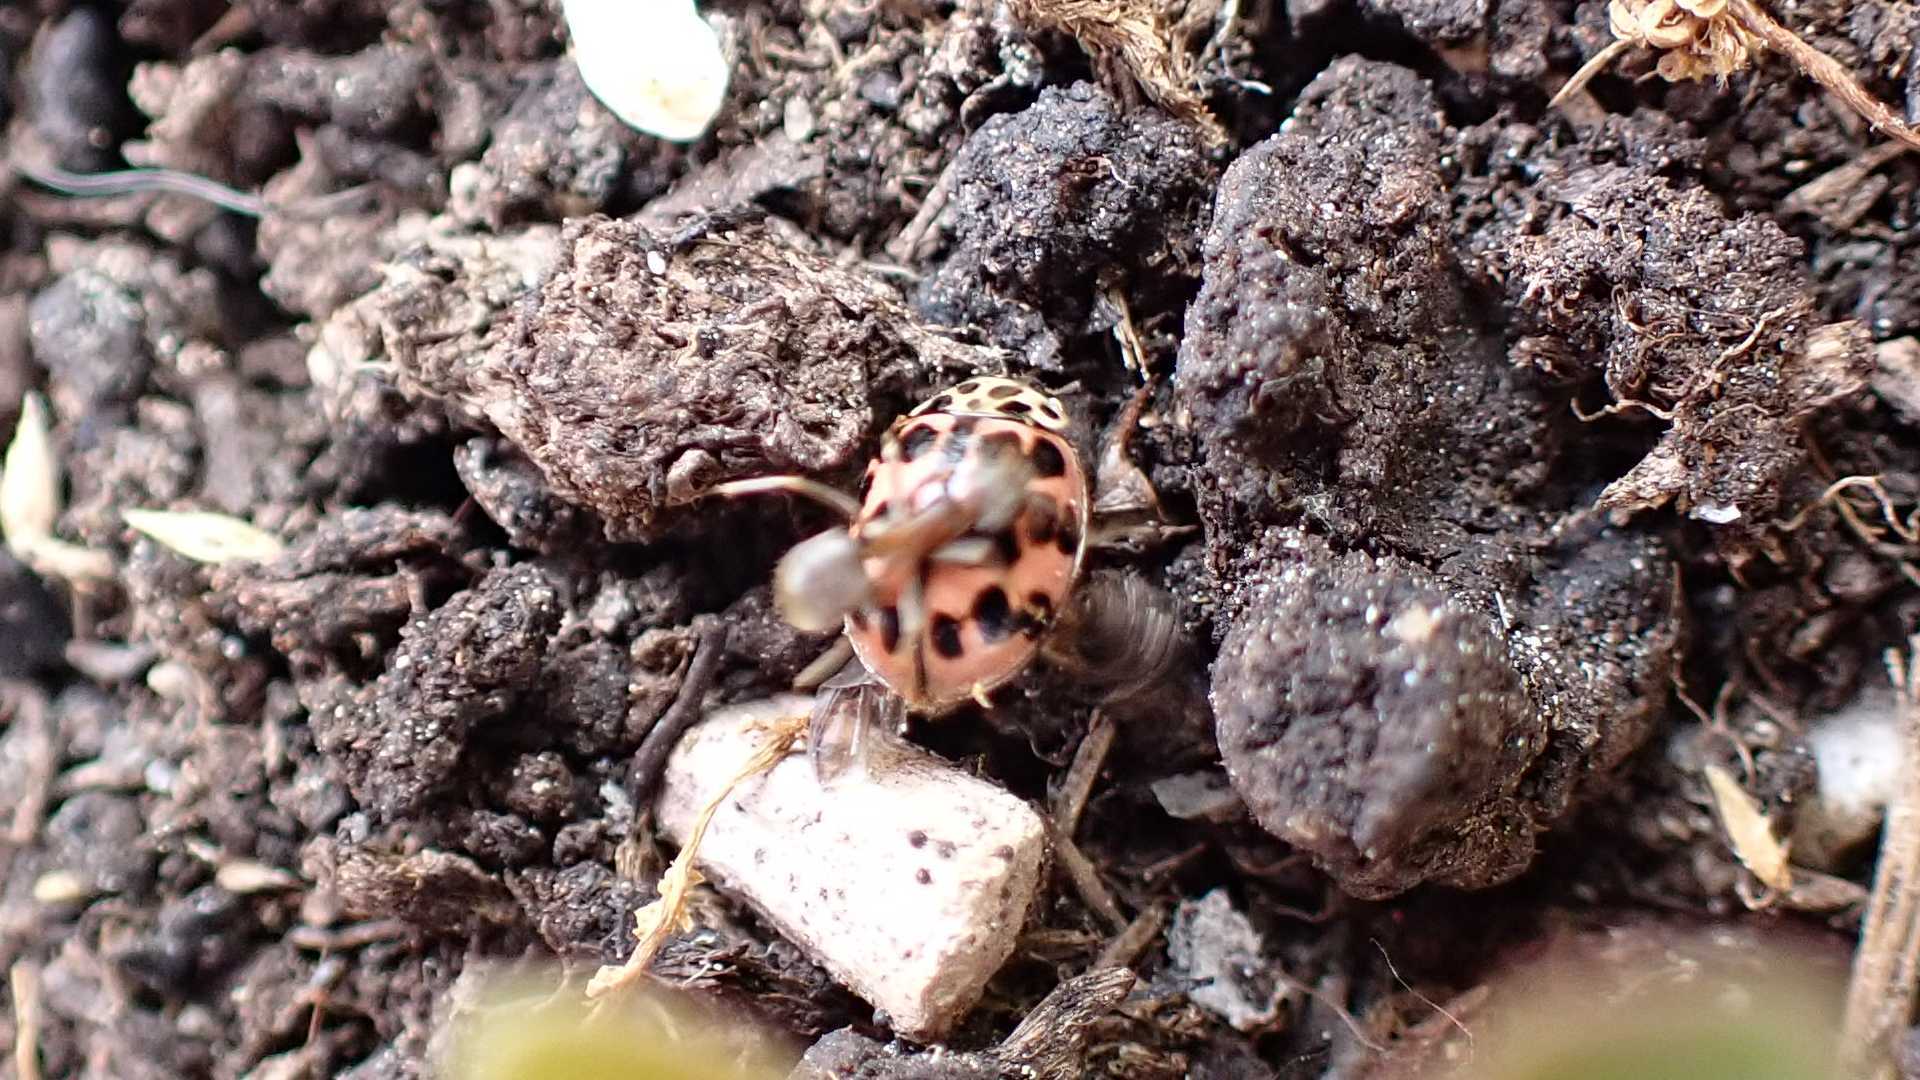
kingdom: Animalia
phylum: Arthropoda
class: Insecta
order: Coleoptera
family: Coccinellidae
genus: Oenopia
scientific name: Oenopia conglobata
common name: Ladybird beetle
